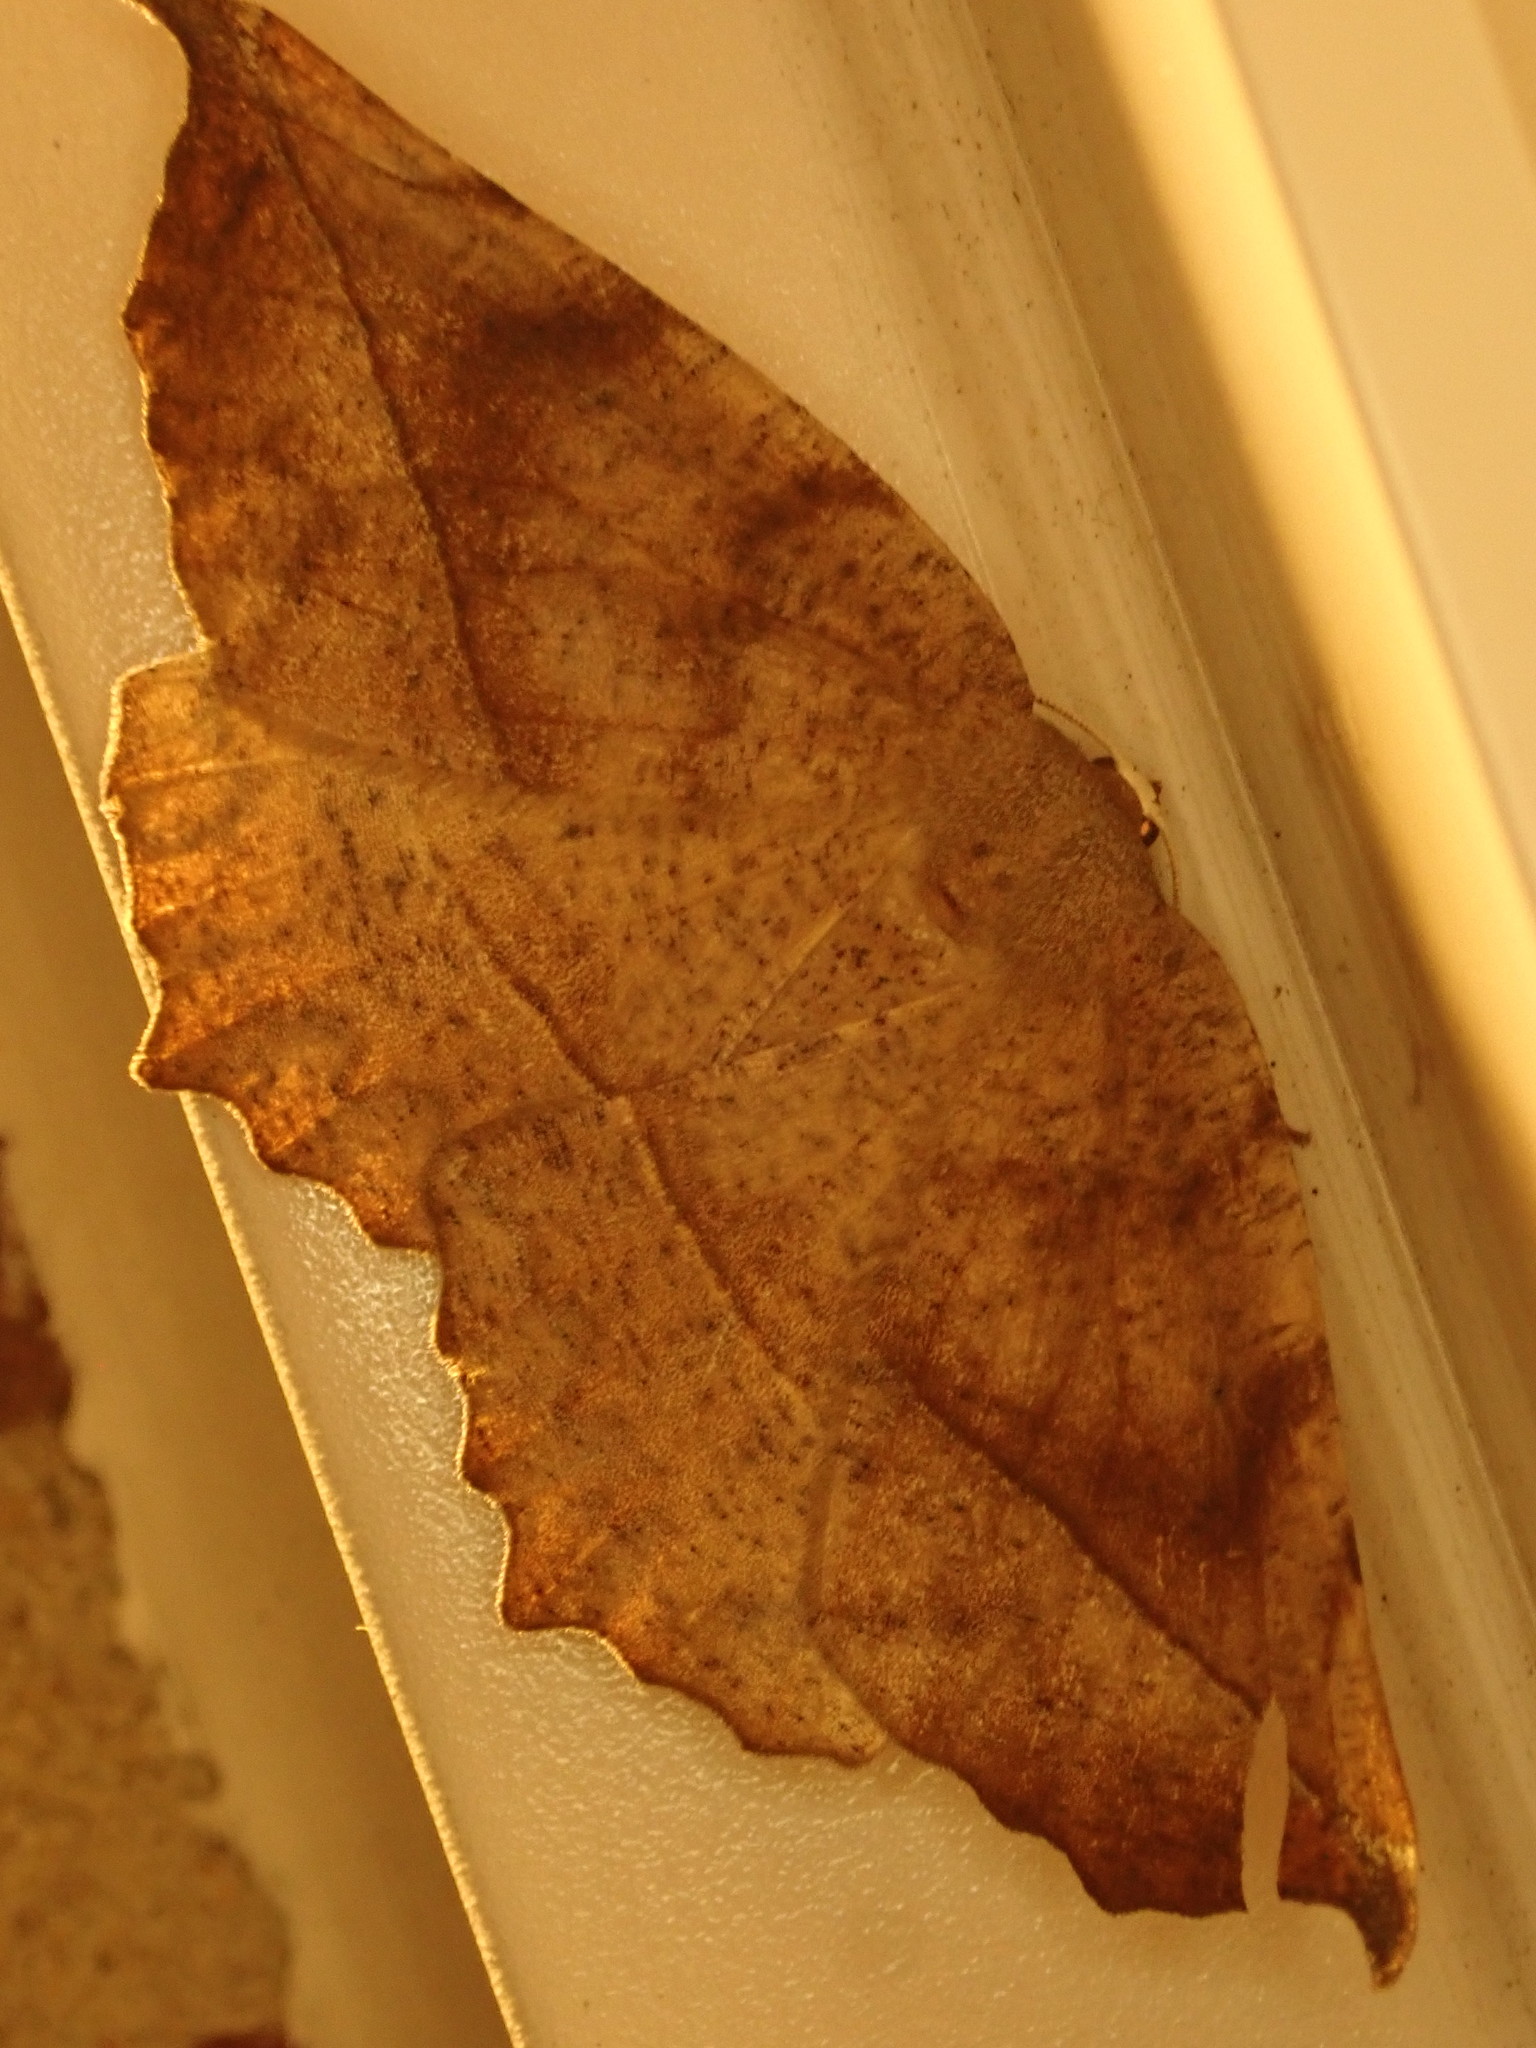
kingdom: Animalia
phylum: Arthropoda
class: Insecta
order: Lepidoptera
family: Geometridae
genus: Eutrapela
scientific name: Eutrapela clemataria
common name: Curved-toothed geometer
